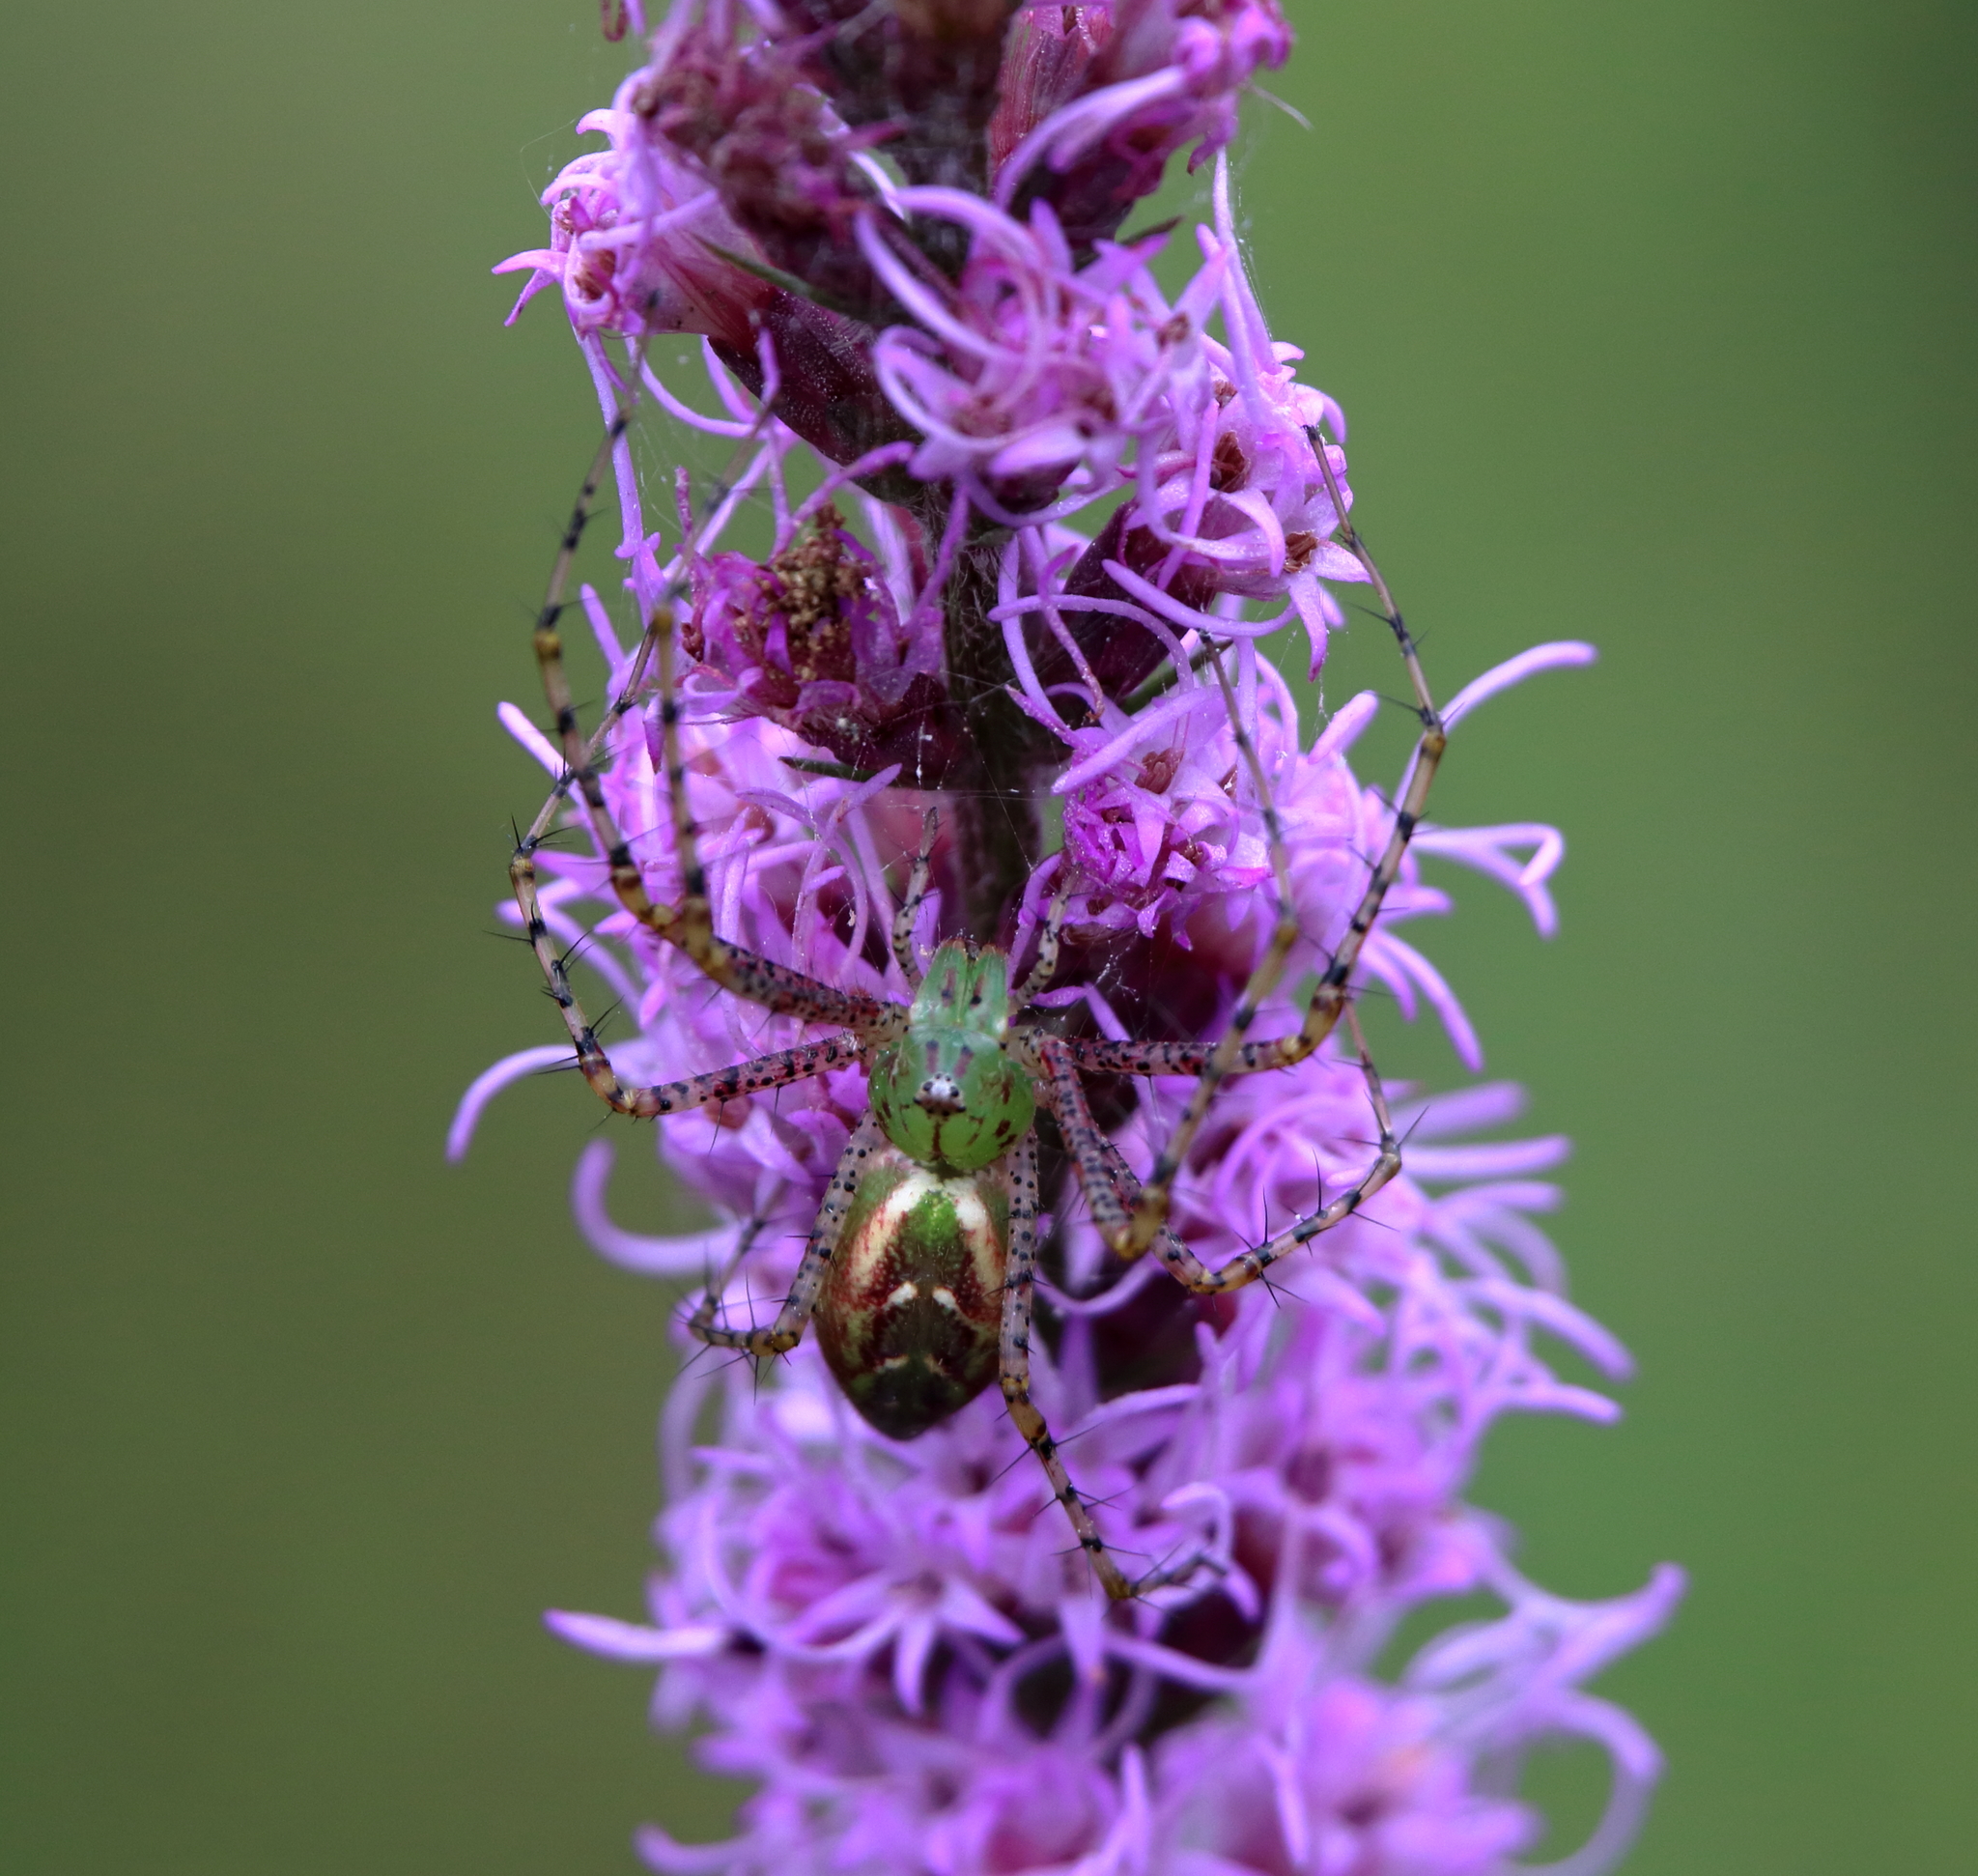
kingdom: Animalia
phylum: Arthropoda
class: Arachnida
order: Araneae
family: Oxyopidae
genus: Peucetia
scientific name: Peucetia viridans
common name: Lynx spiders
